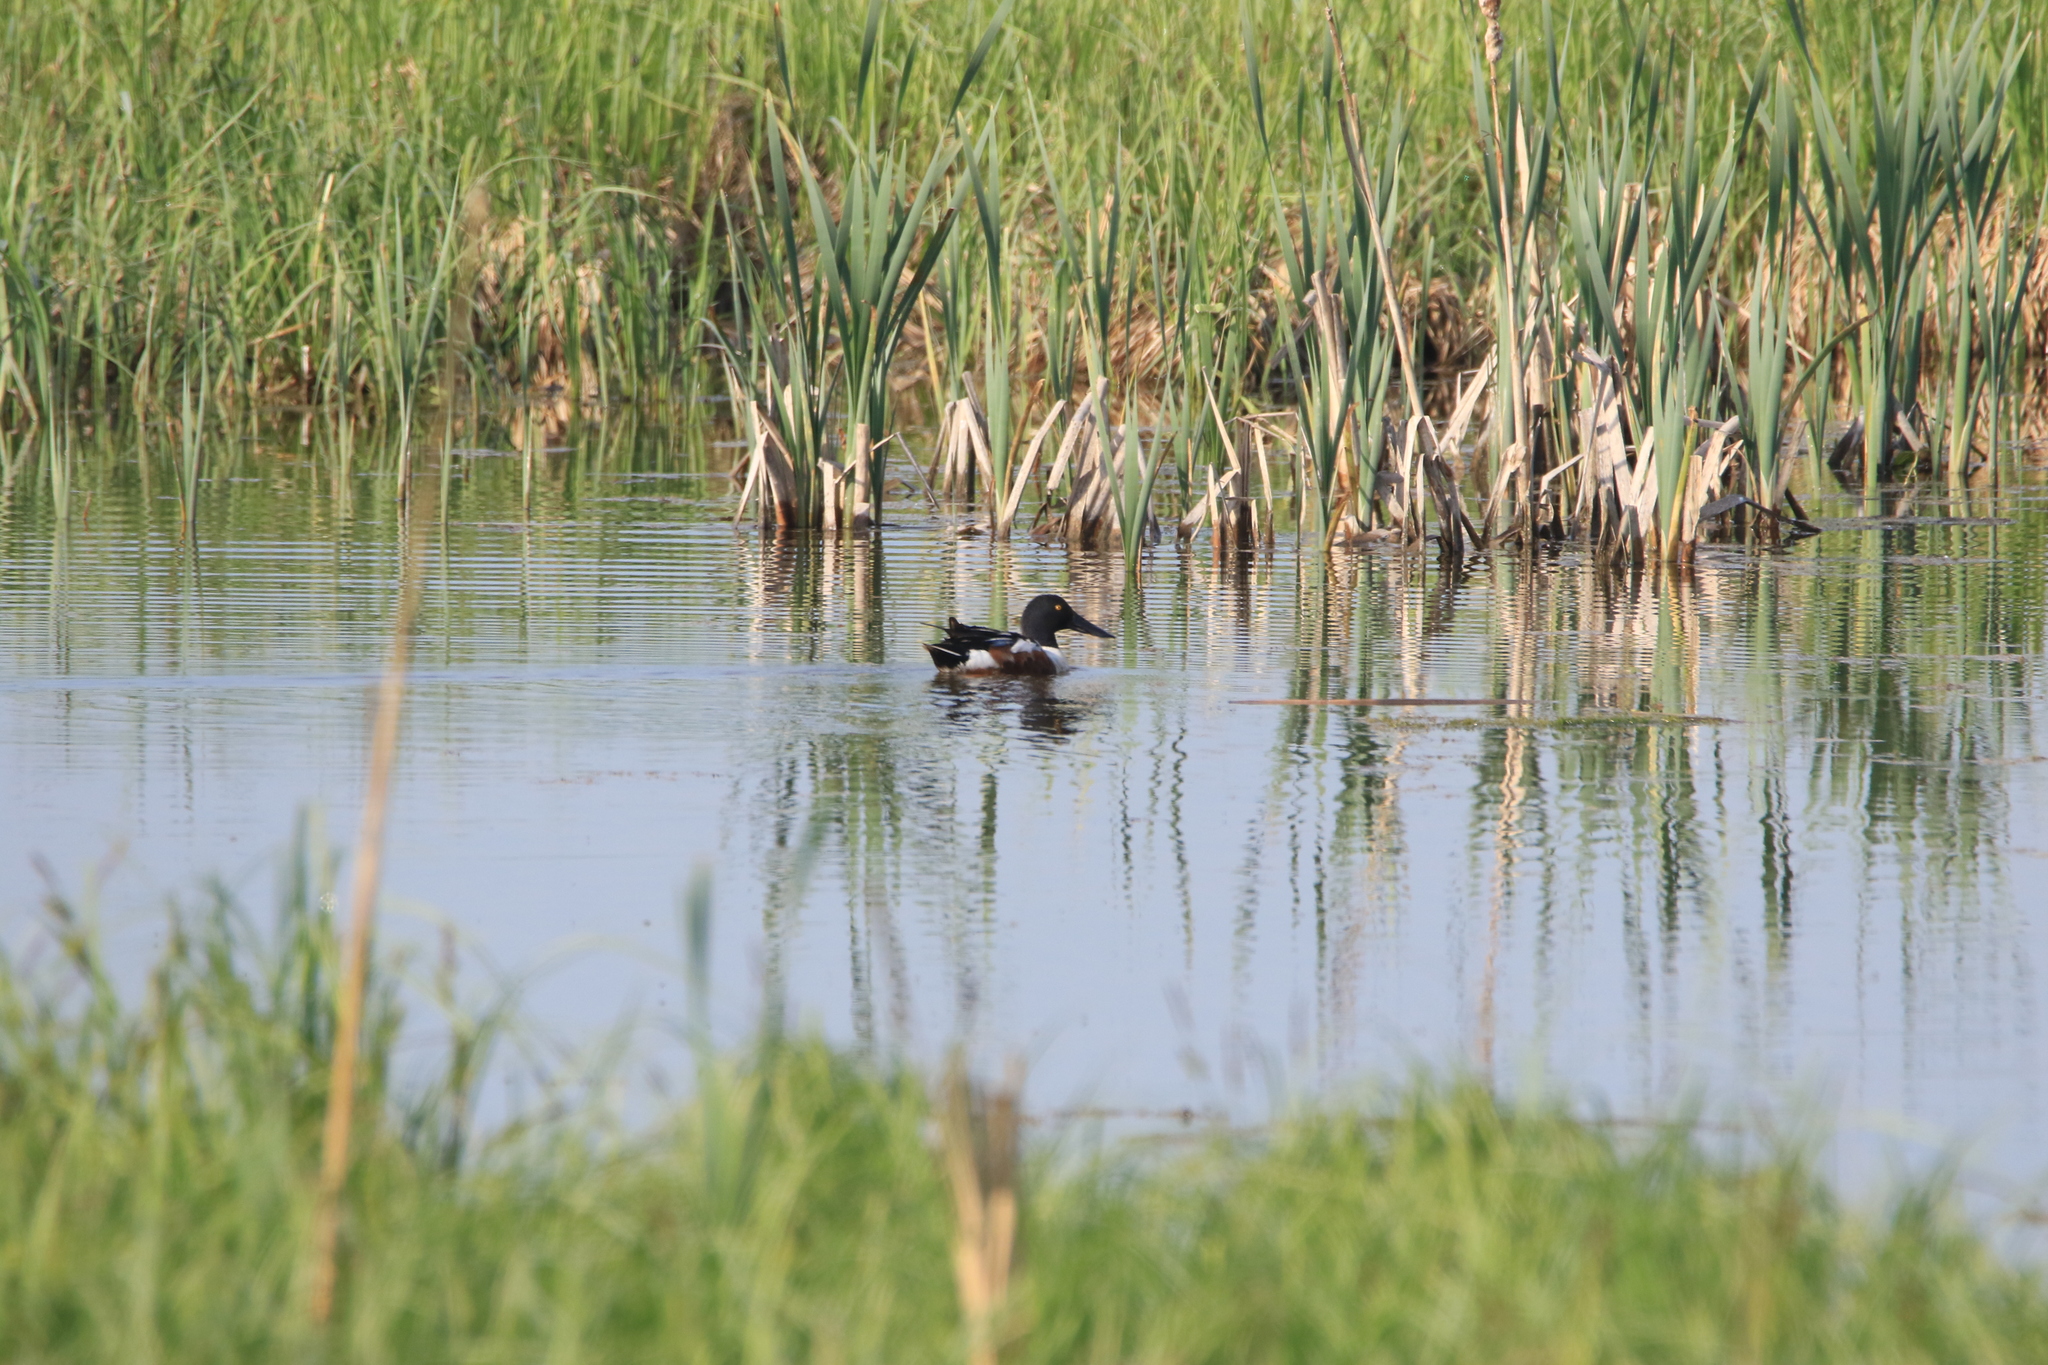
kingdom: Animalia
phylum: Chordata
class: Aves
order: Anseriformes
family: Anatidae
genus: Spatula
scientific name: Spatula clypeata
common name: Northern shoveler
